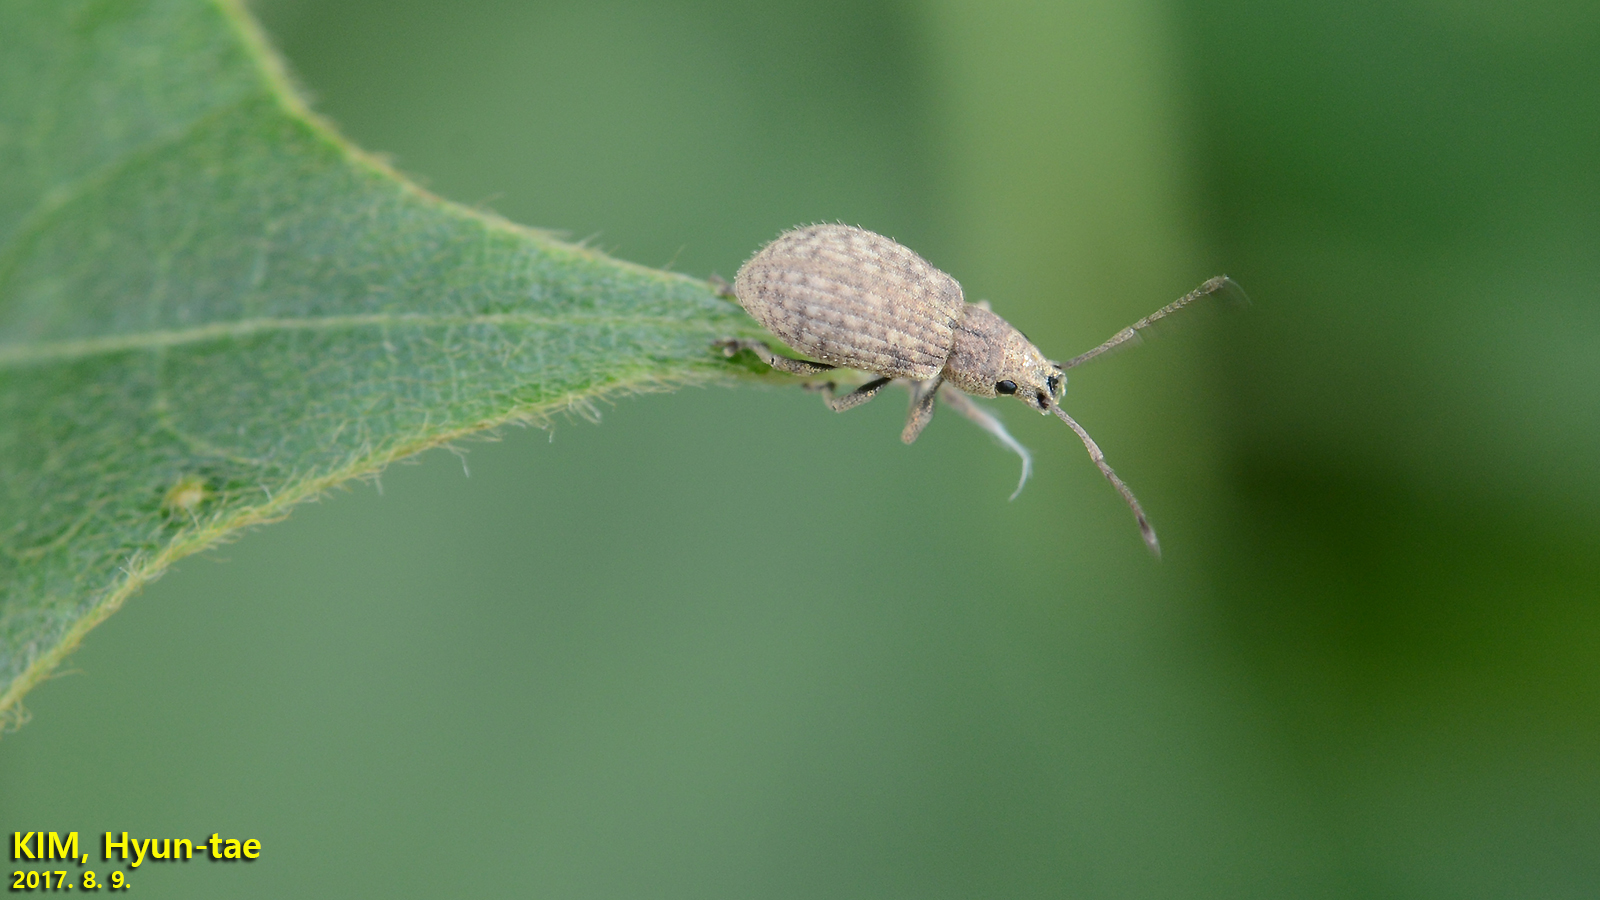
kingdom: Animalia
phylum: Arthropoda
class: Insecta
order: Coleoptera
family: Curculionidae
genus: Ptochidius
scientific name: Ptochidius tessellatus
